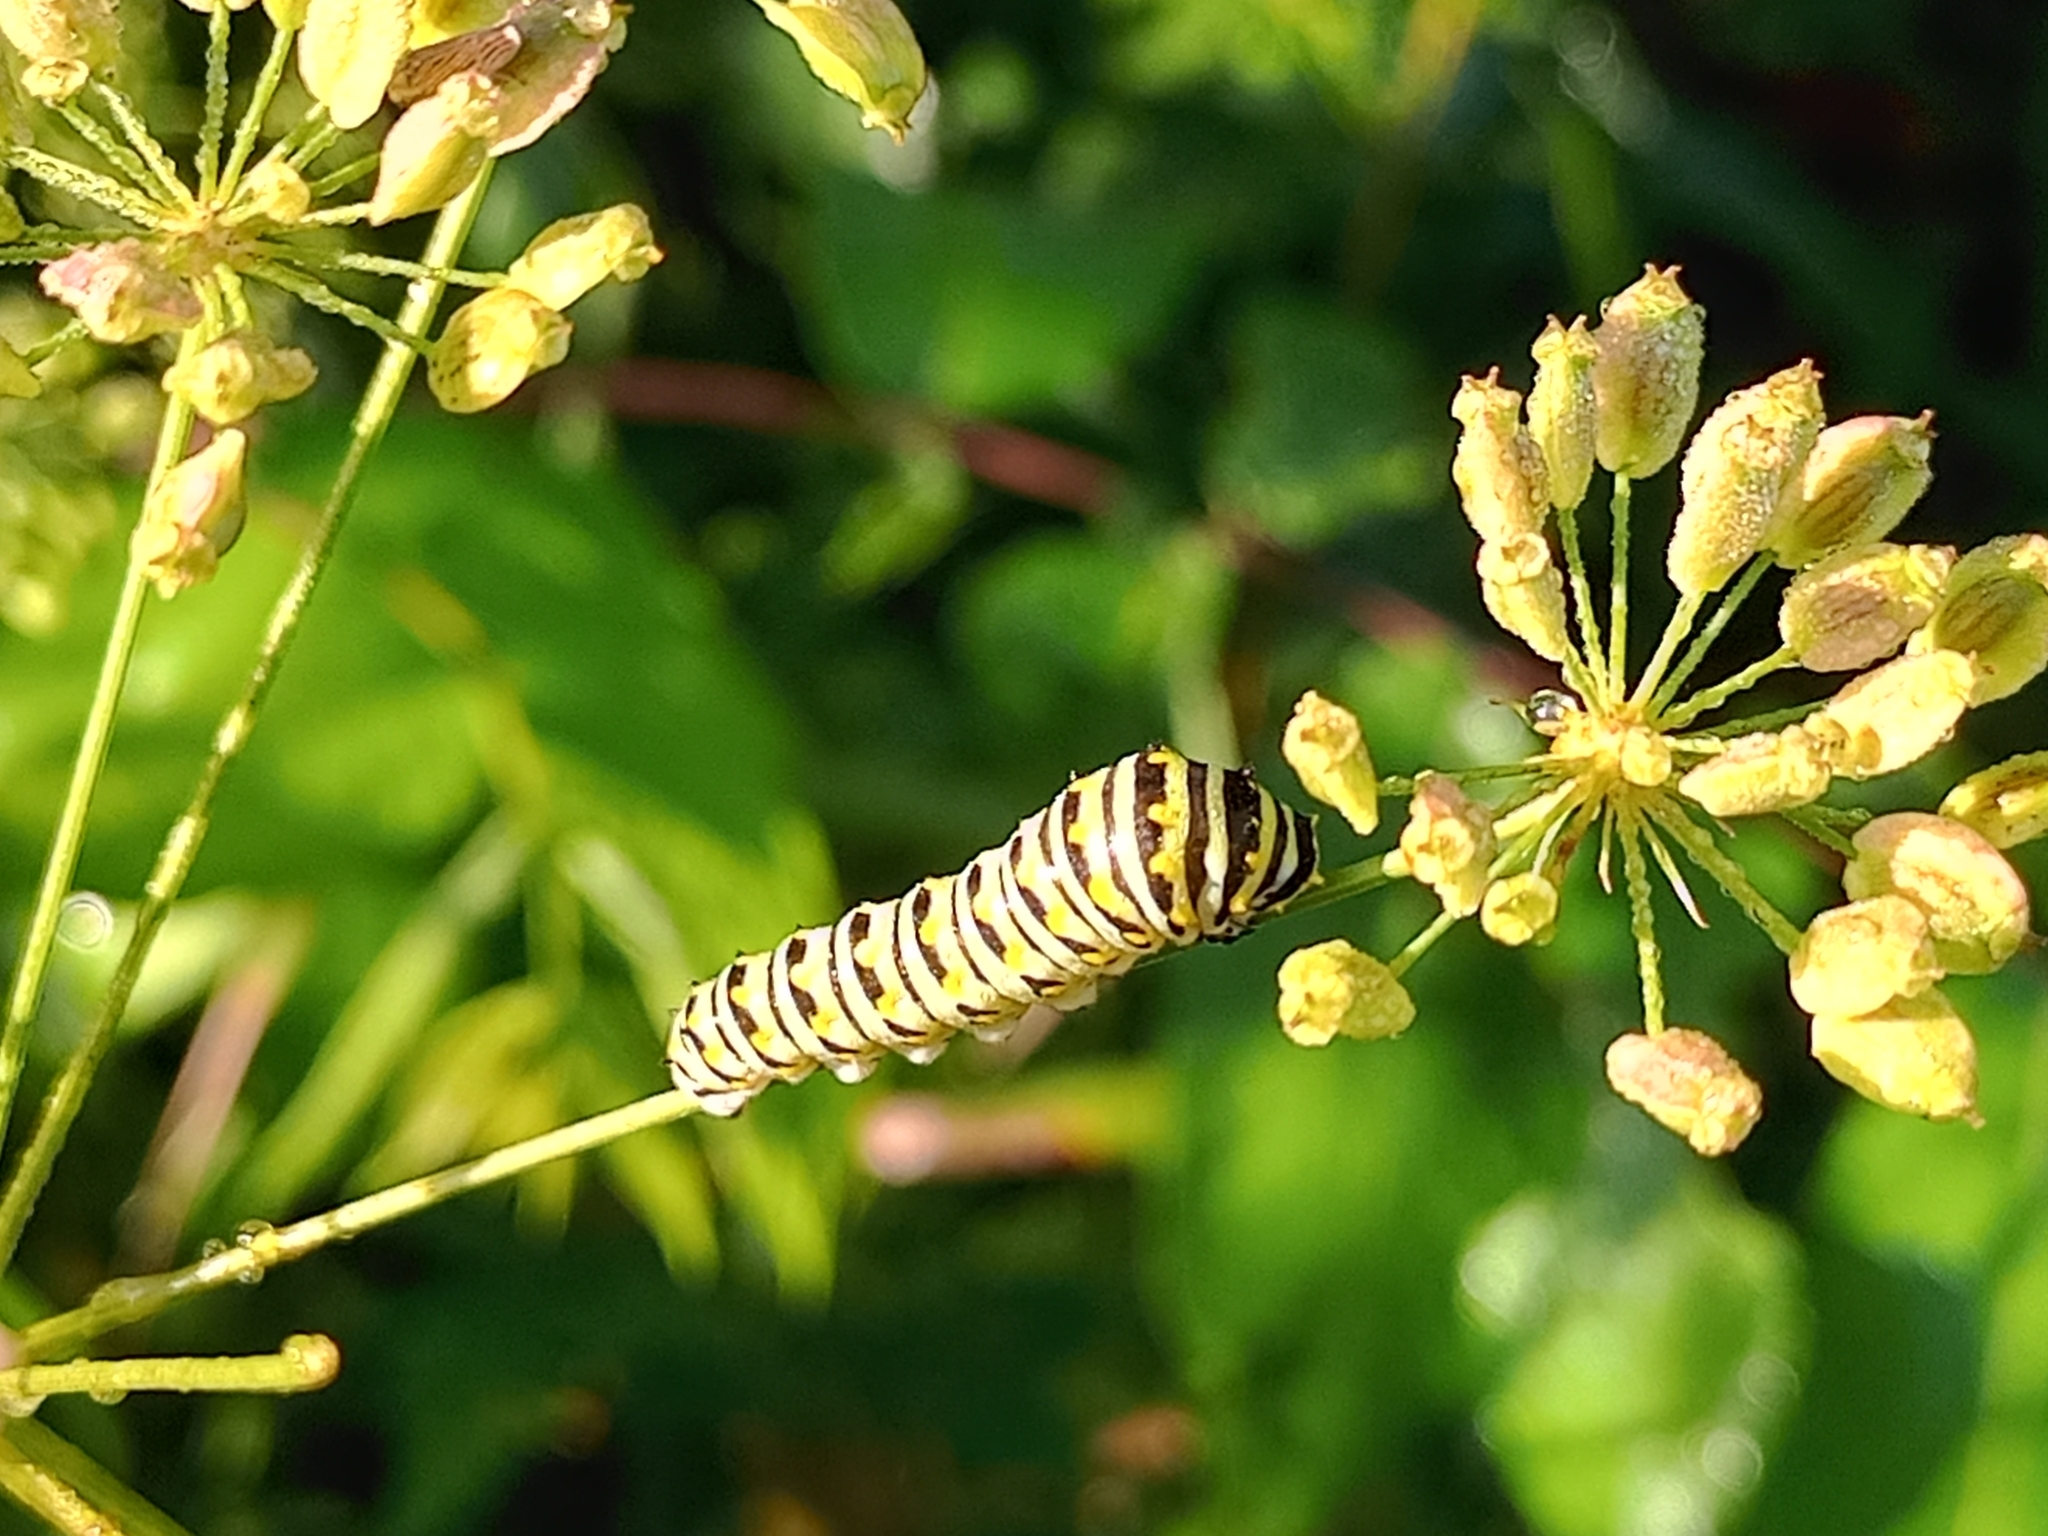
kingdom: Animalia
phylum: Arthropoda
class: Insecta
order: Lepidoptera
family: Papilionidae
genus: Papilio
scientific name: Papilio polyxenes
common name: Black swallowtail
